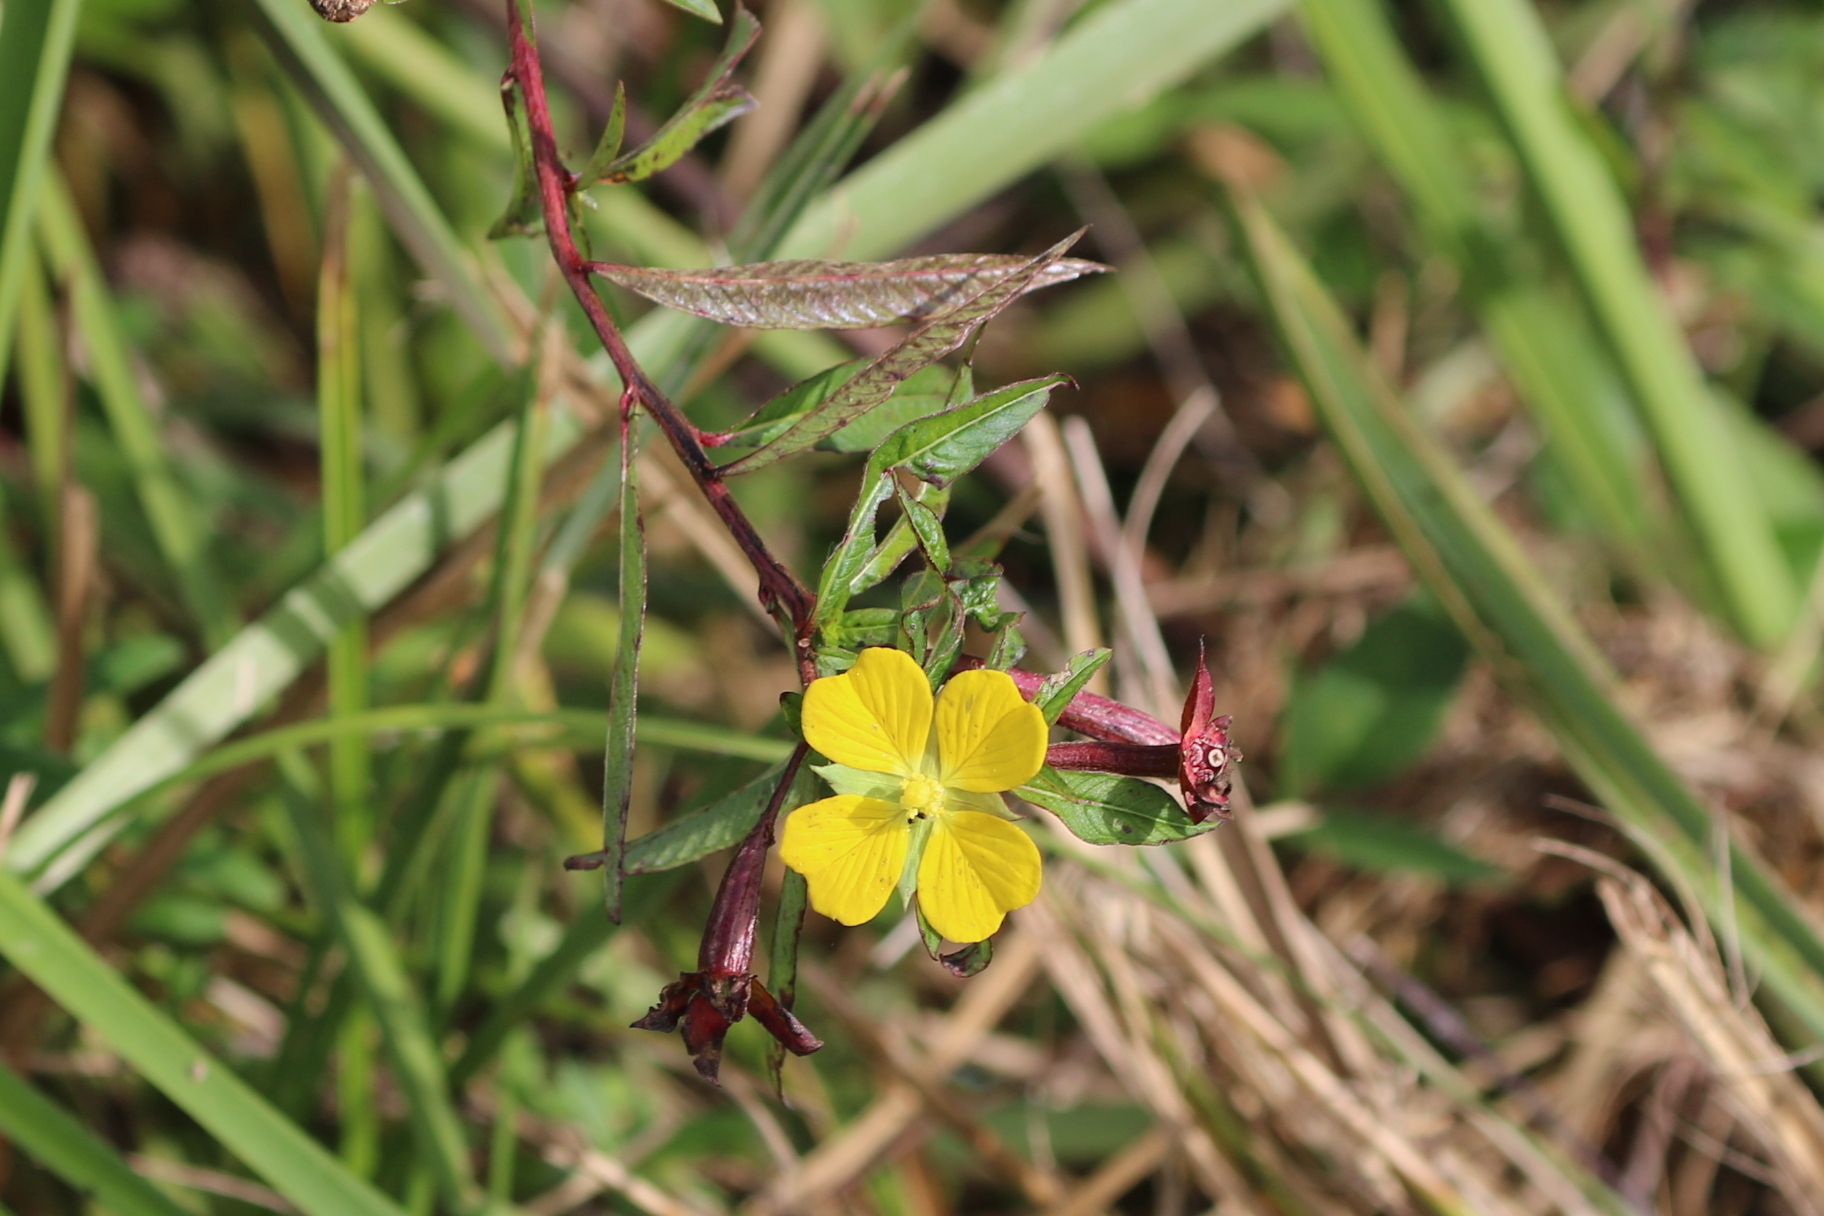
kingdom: Plantae
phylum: Tracheophyta
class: Magnoliopsida
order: Myrtales
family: Onagraceae
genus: Ludwigia
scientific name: Ludwigia octovalvis
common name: Water-primrose
